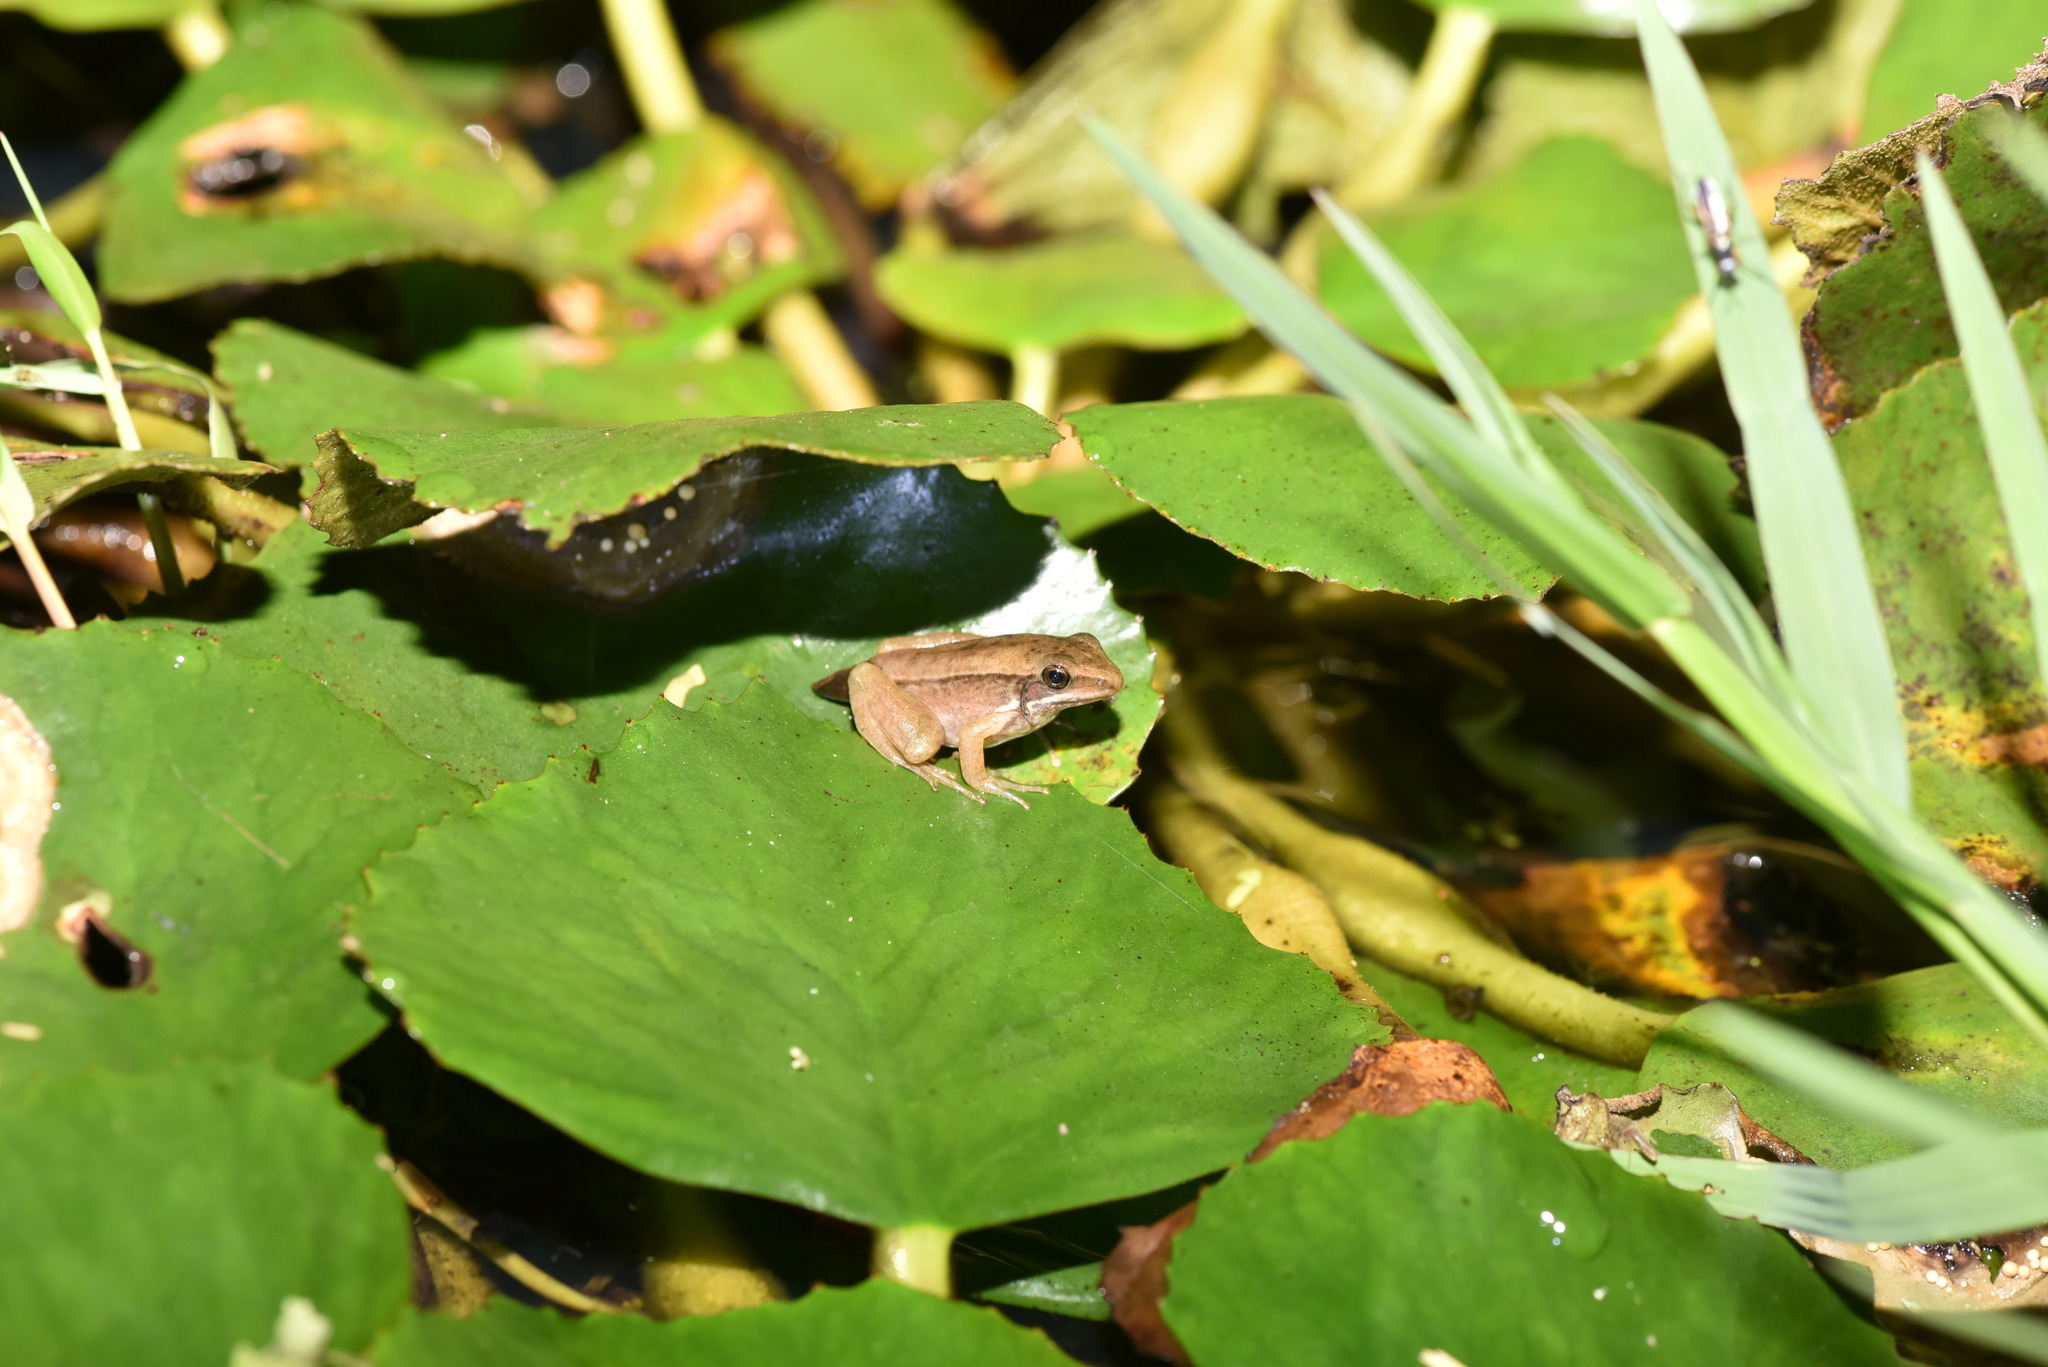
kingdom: Animalia
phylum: Chordata
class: Amphibia
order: Anura
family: Ranidae
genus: Sylvirana
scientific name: Sylvirana guentheri
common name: Guenther's amoy frog
